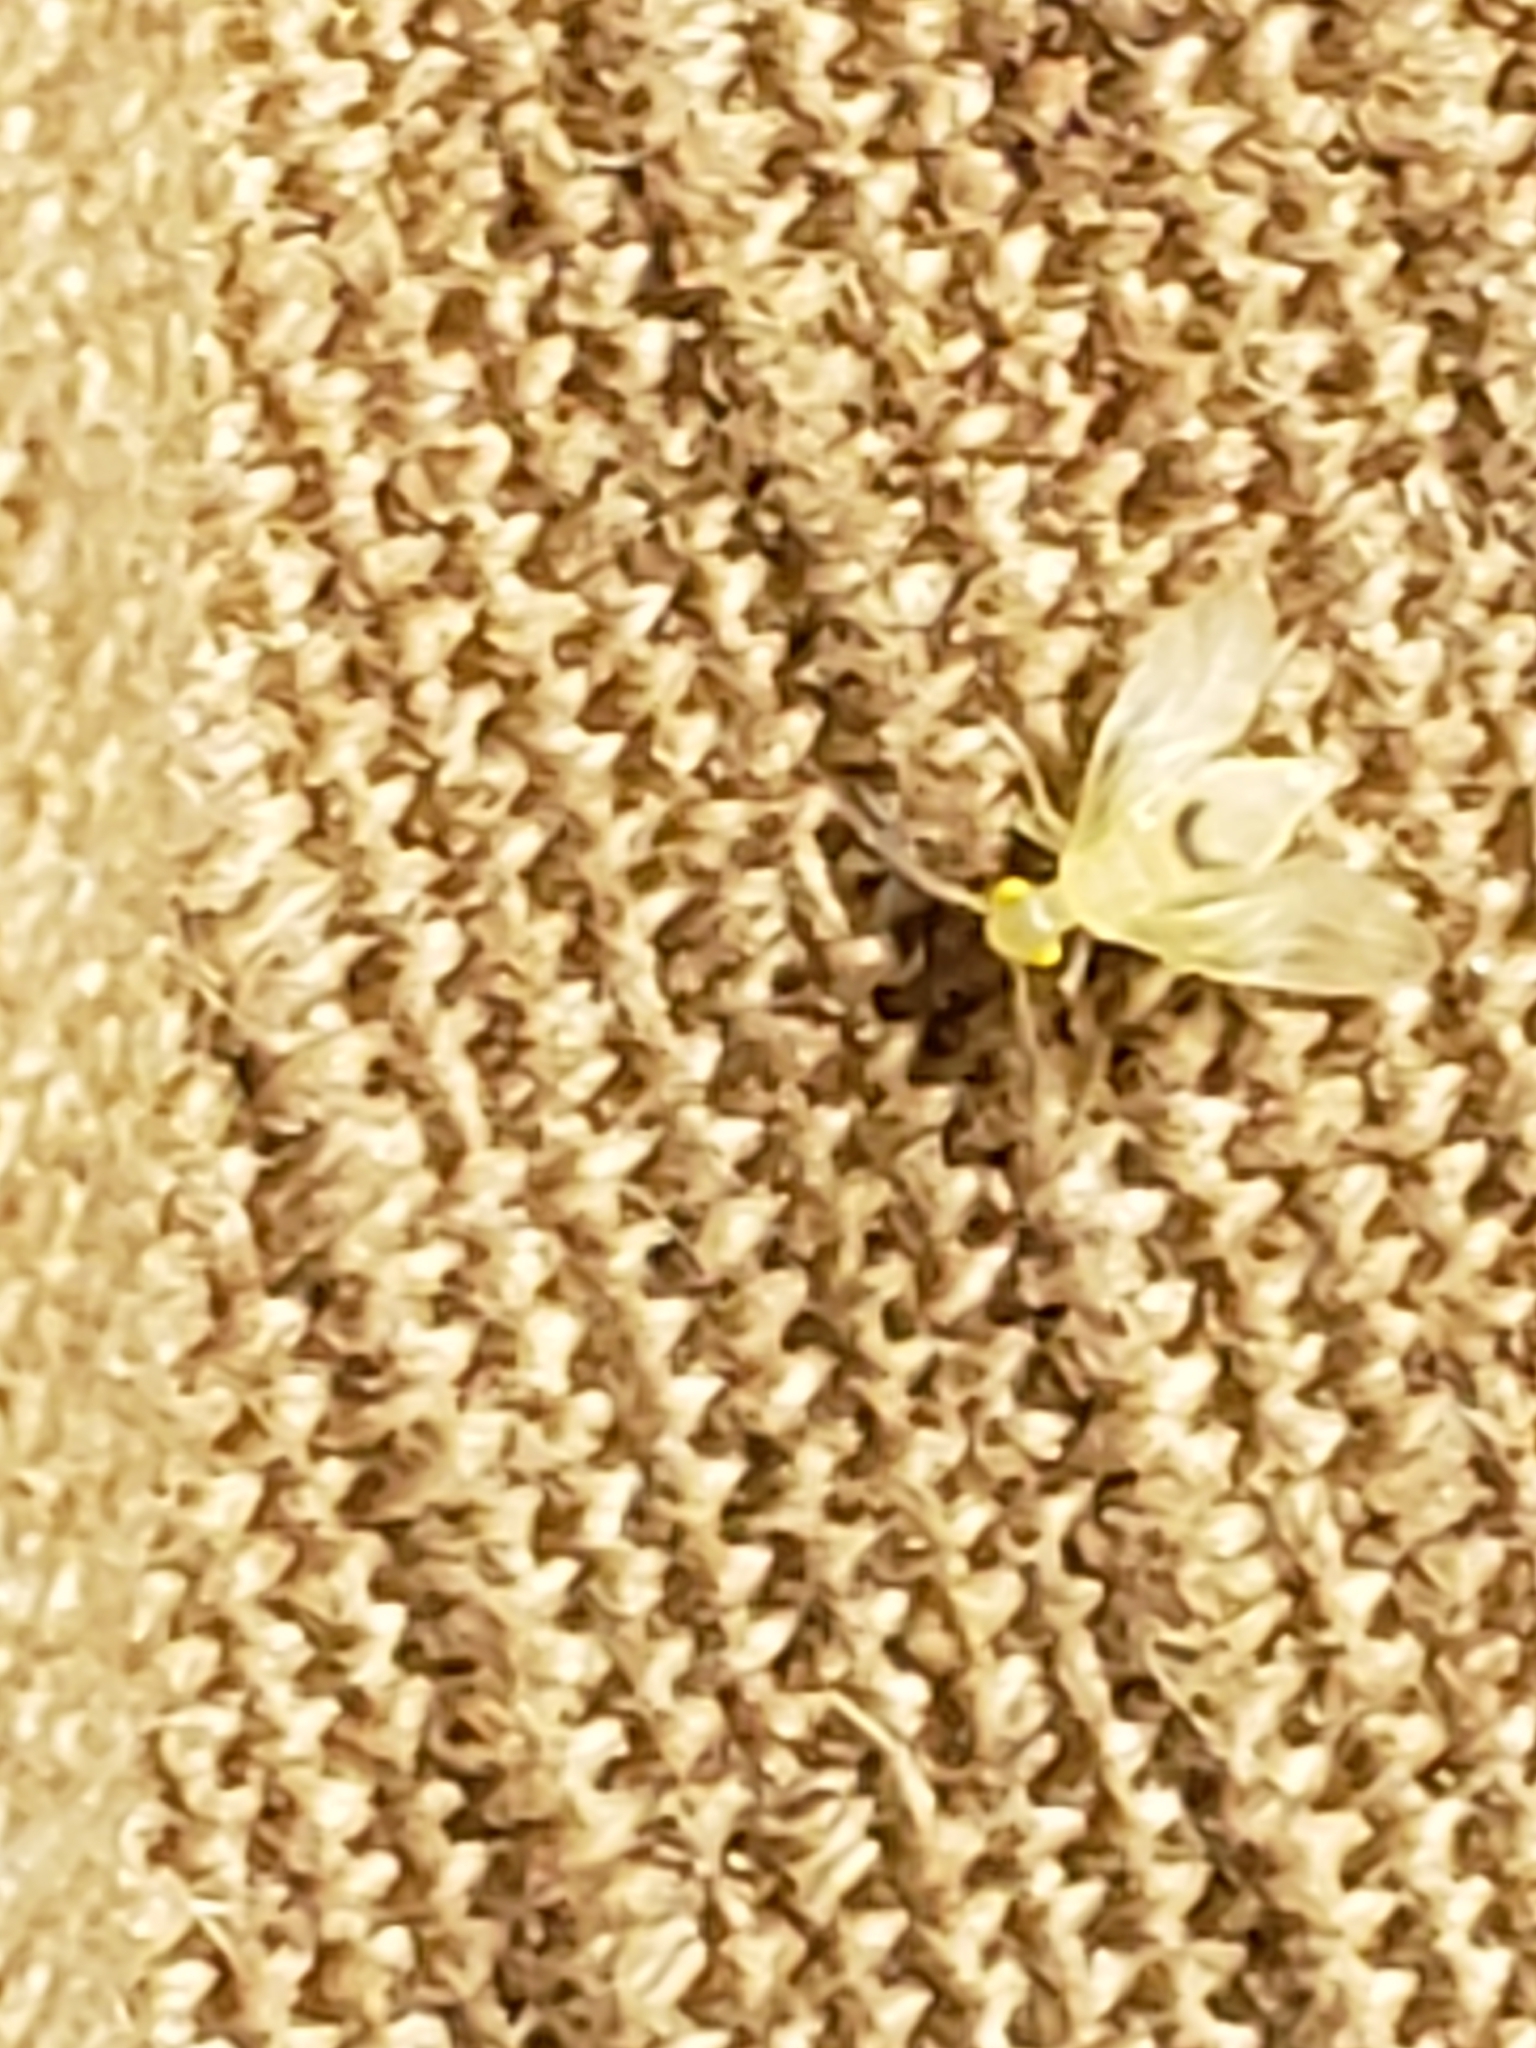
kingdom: Animalia
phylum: Arthropoda
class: Insecta
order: Psocodea
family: Paracaeciliidae
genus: Xanthocaecilius
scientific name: Xanthocaecilius sommermanae
